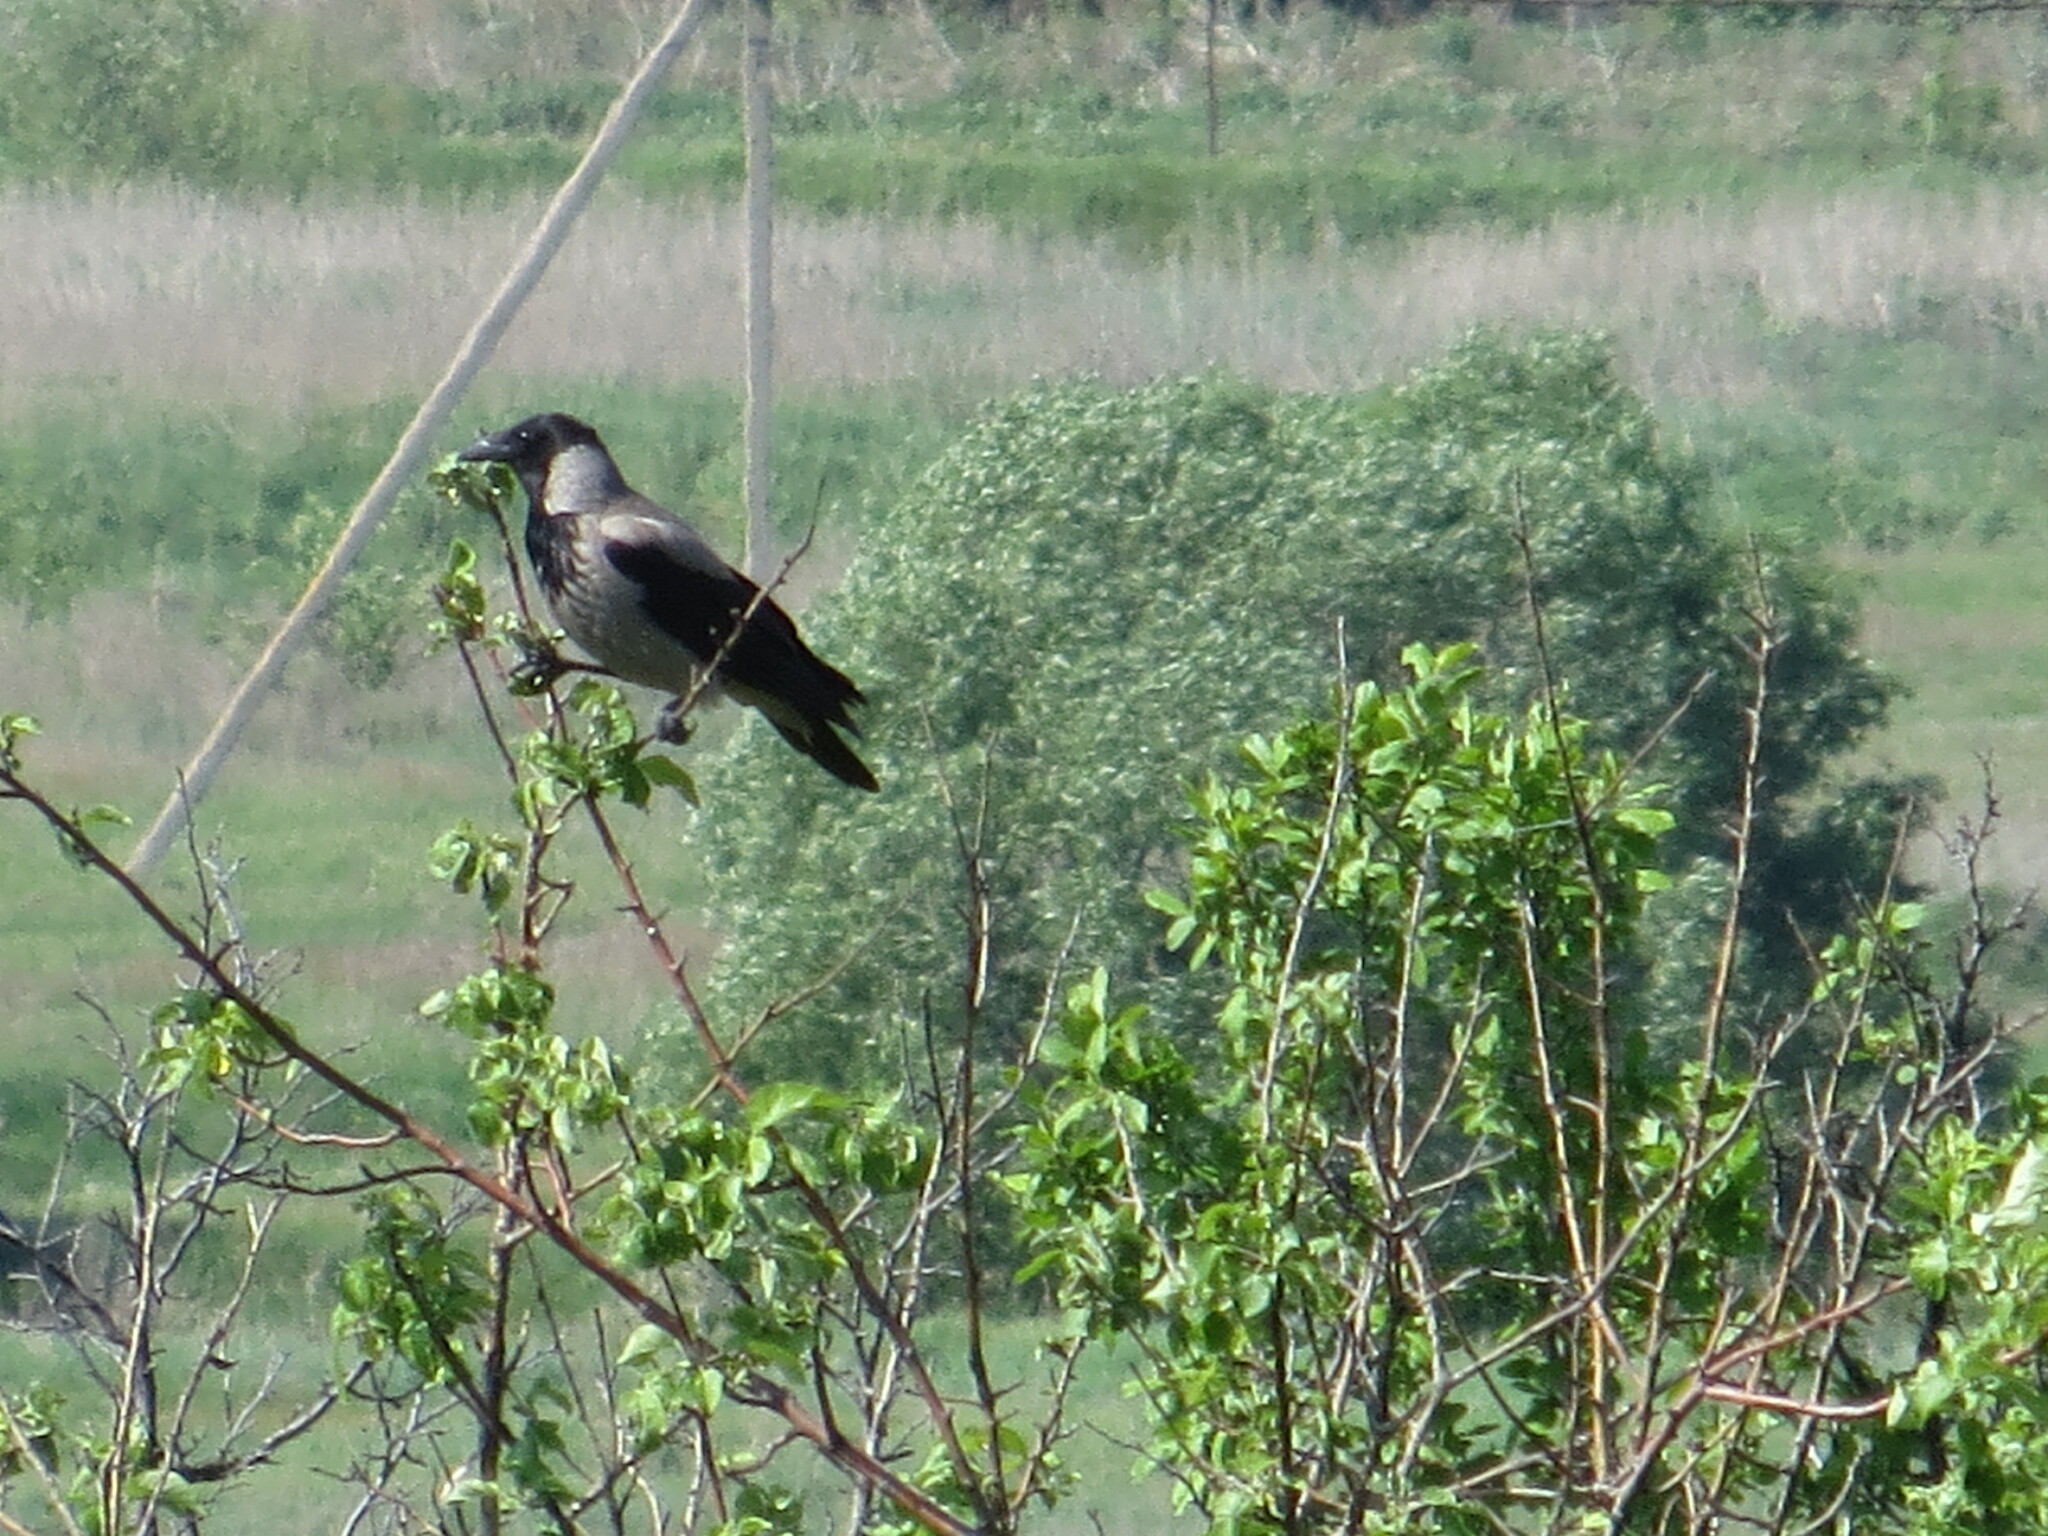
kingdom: Animalia
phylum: Chordata
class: Aves
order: Passeriformes
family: Corvidae
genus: Corvus
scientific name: Corvus cornix
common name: Hooded crow
